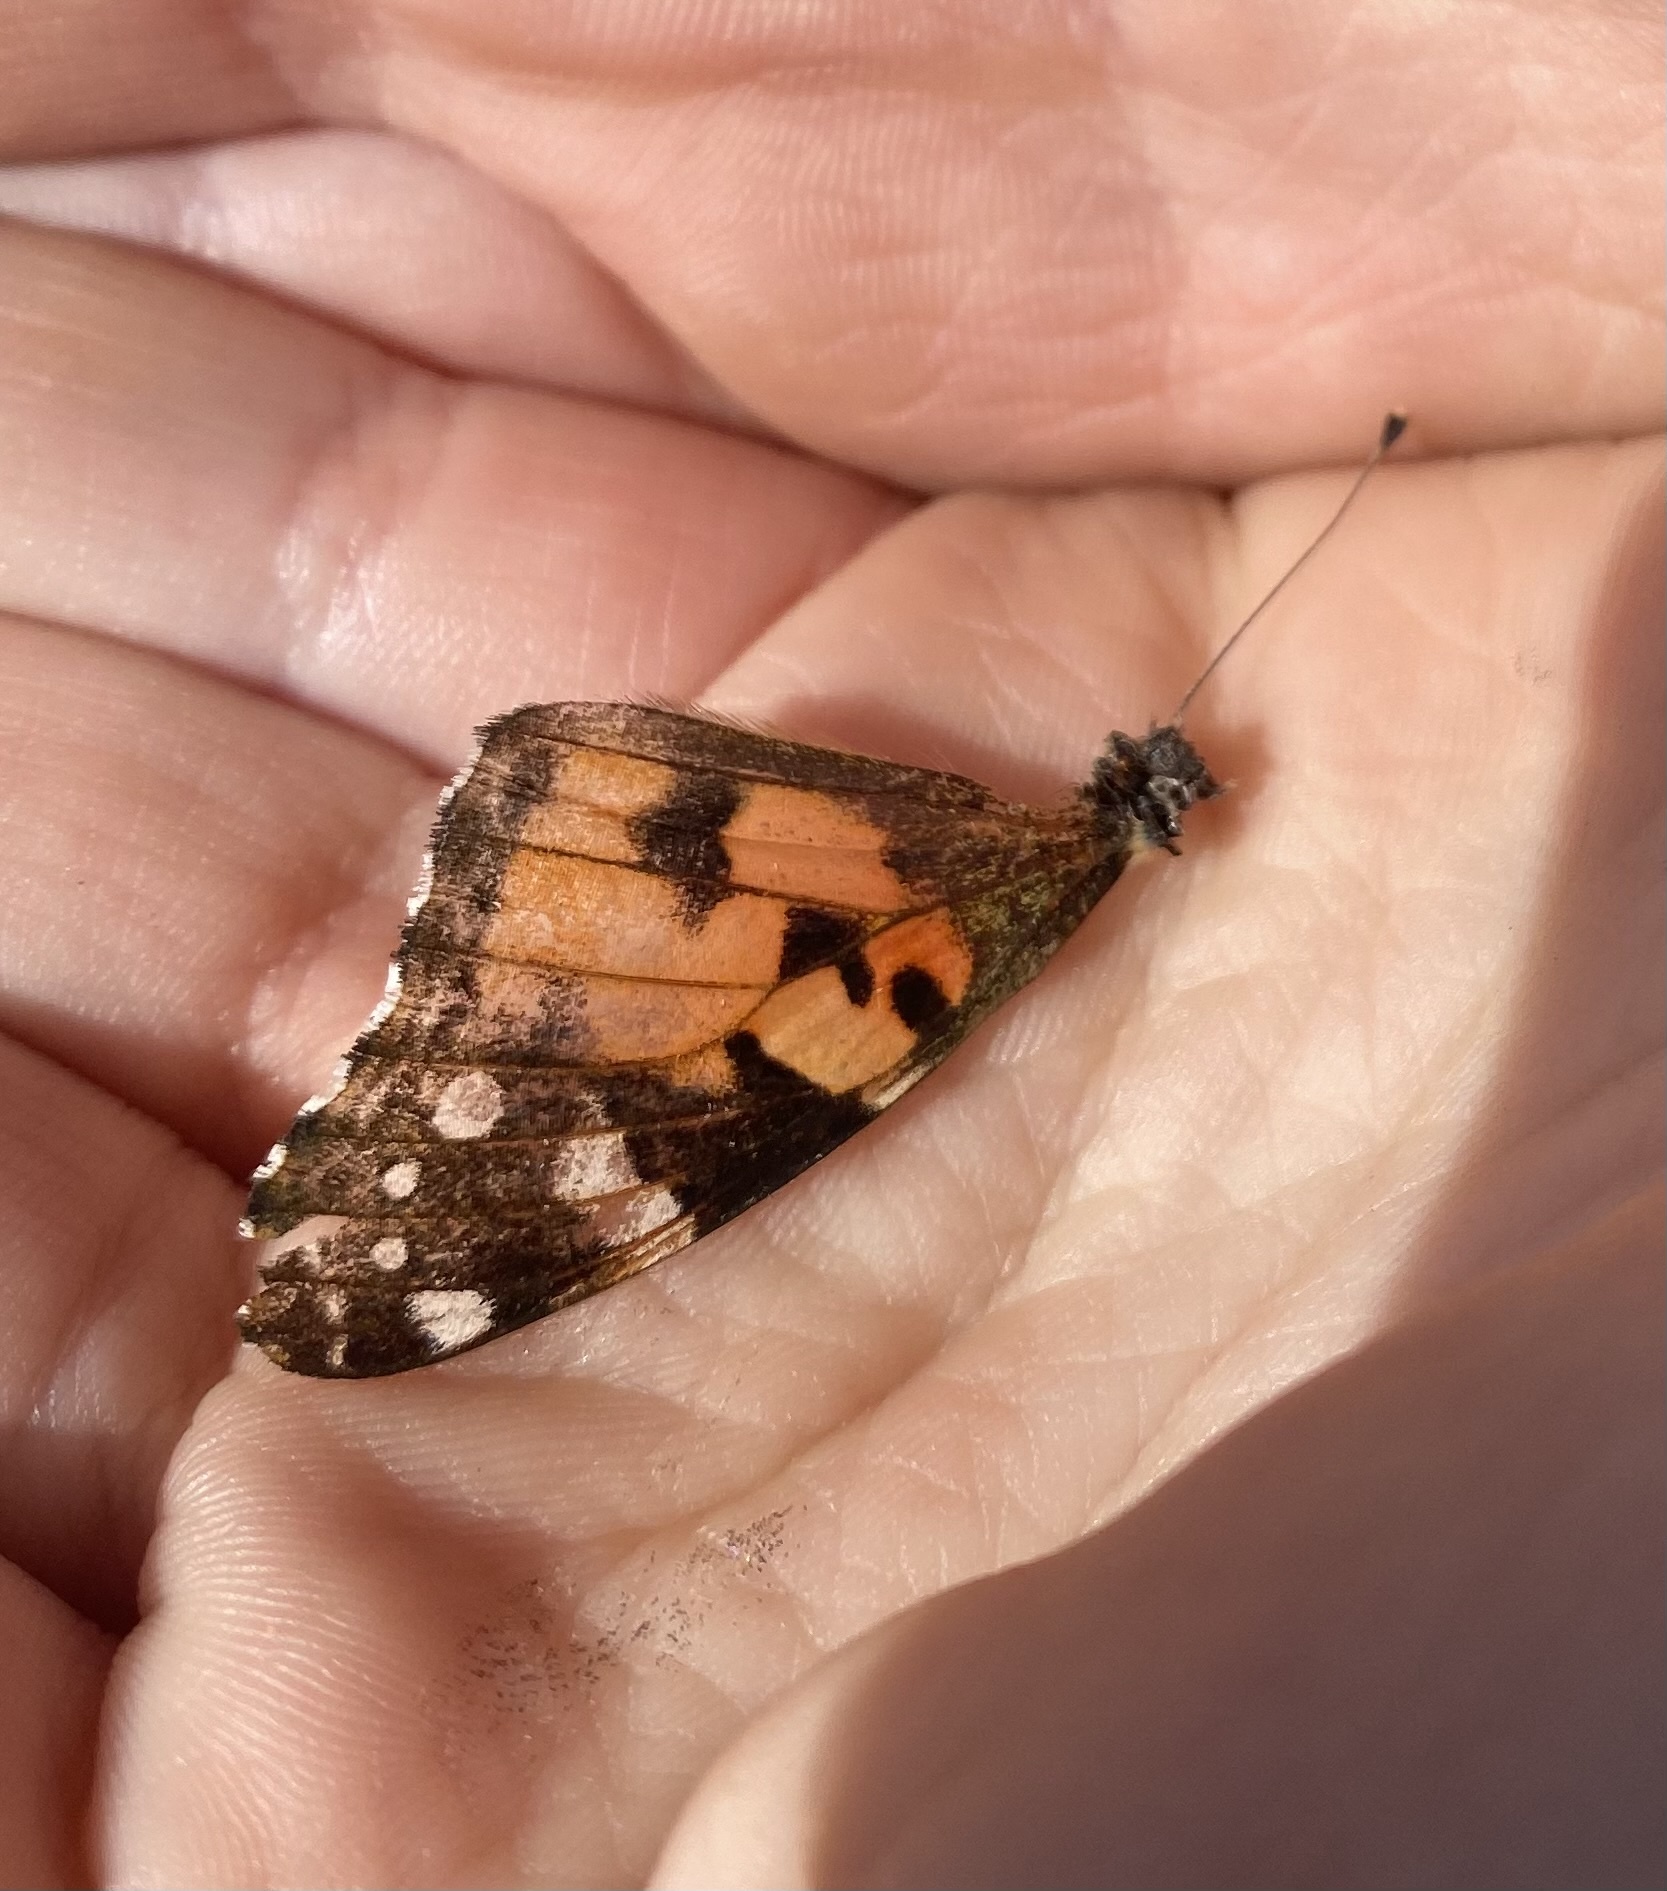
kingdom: Animalia
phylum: Arthropoda
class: Insecta
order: Lepidoptera
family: Nymphalidae
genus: Vanessa
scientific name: Vanessa cardui
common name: Painted lady
